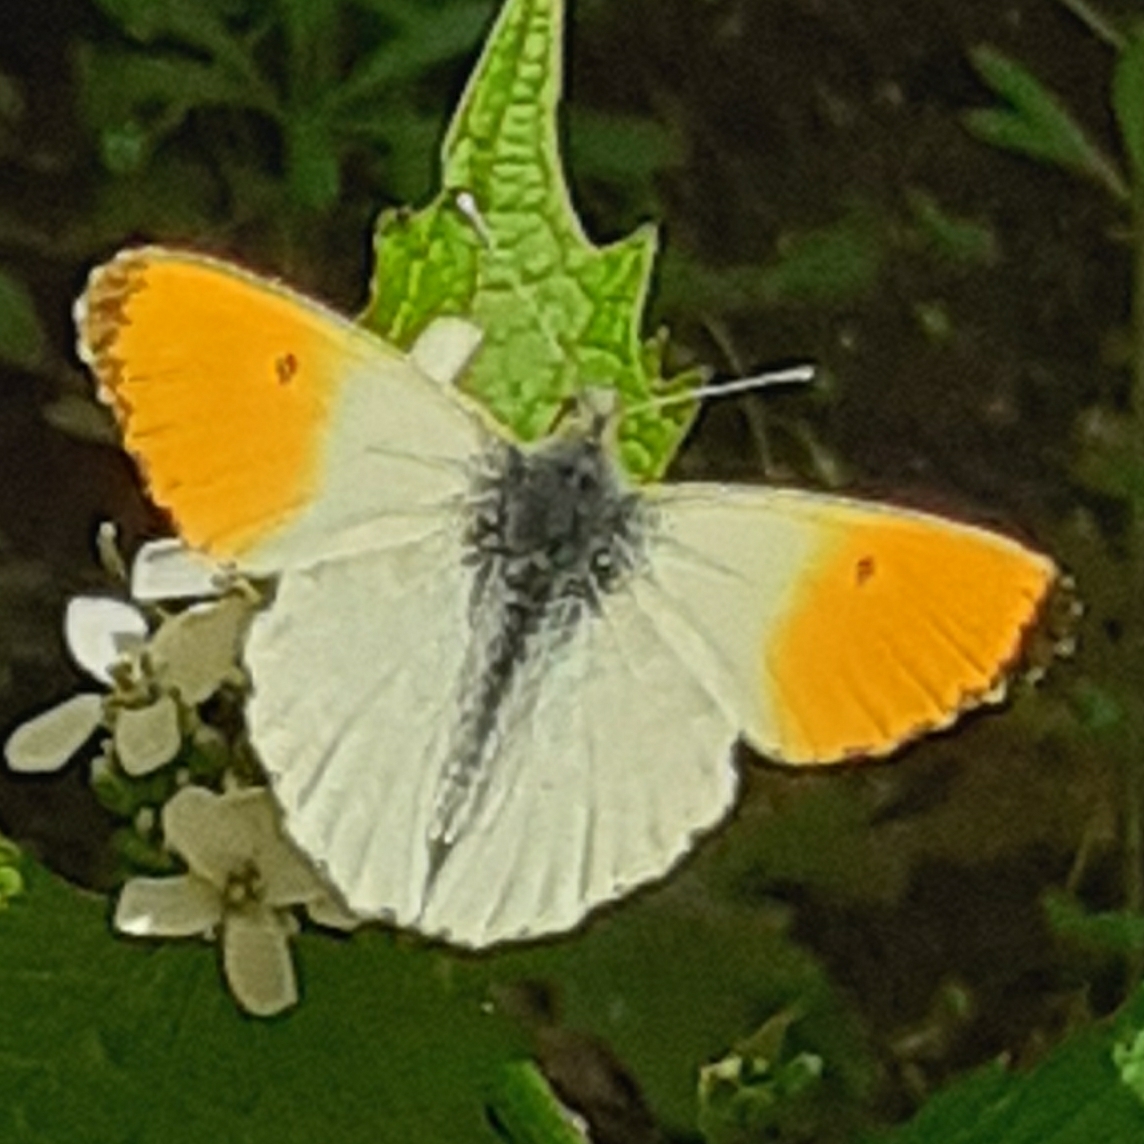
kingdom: Animalia
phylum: Arthropoda
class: Insecta
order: Lepidoptera
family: Pieridae
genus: Anthocharis
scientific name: Anthocharis cardamines
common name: Orange-tip
